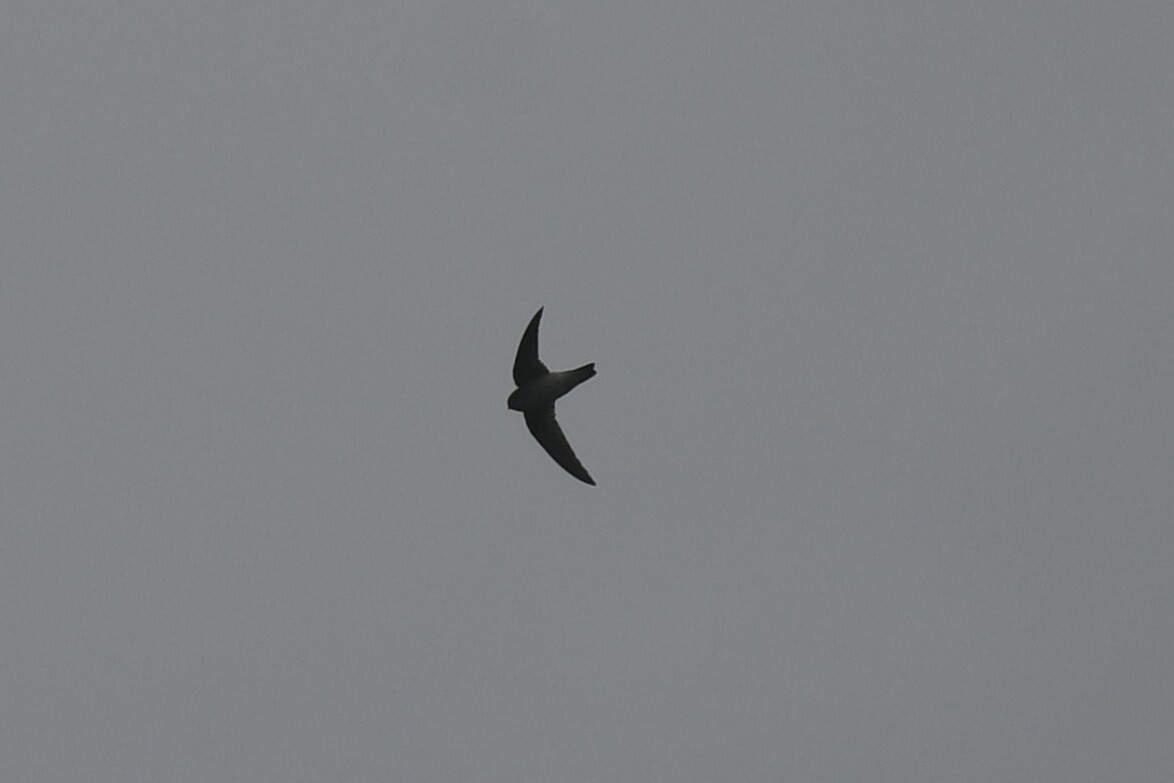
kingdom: Animalia
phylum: Chordata
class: Aves
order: Apodiformes
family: Apodidae
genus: Aerodramus
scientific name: Aerodramus brevirostris
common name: Himalayan swiftlet
